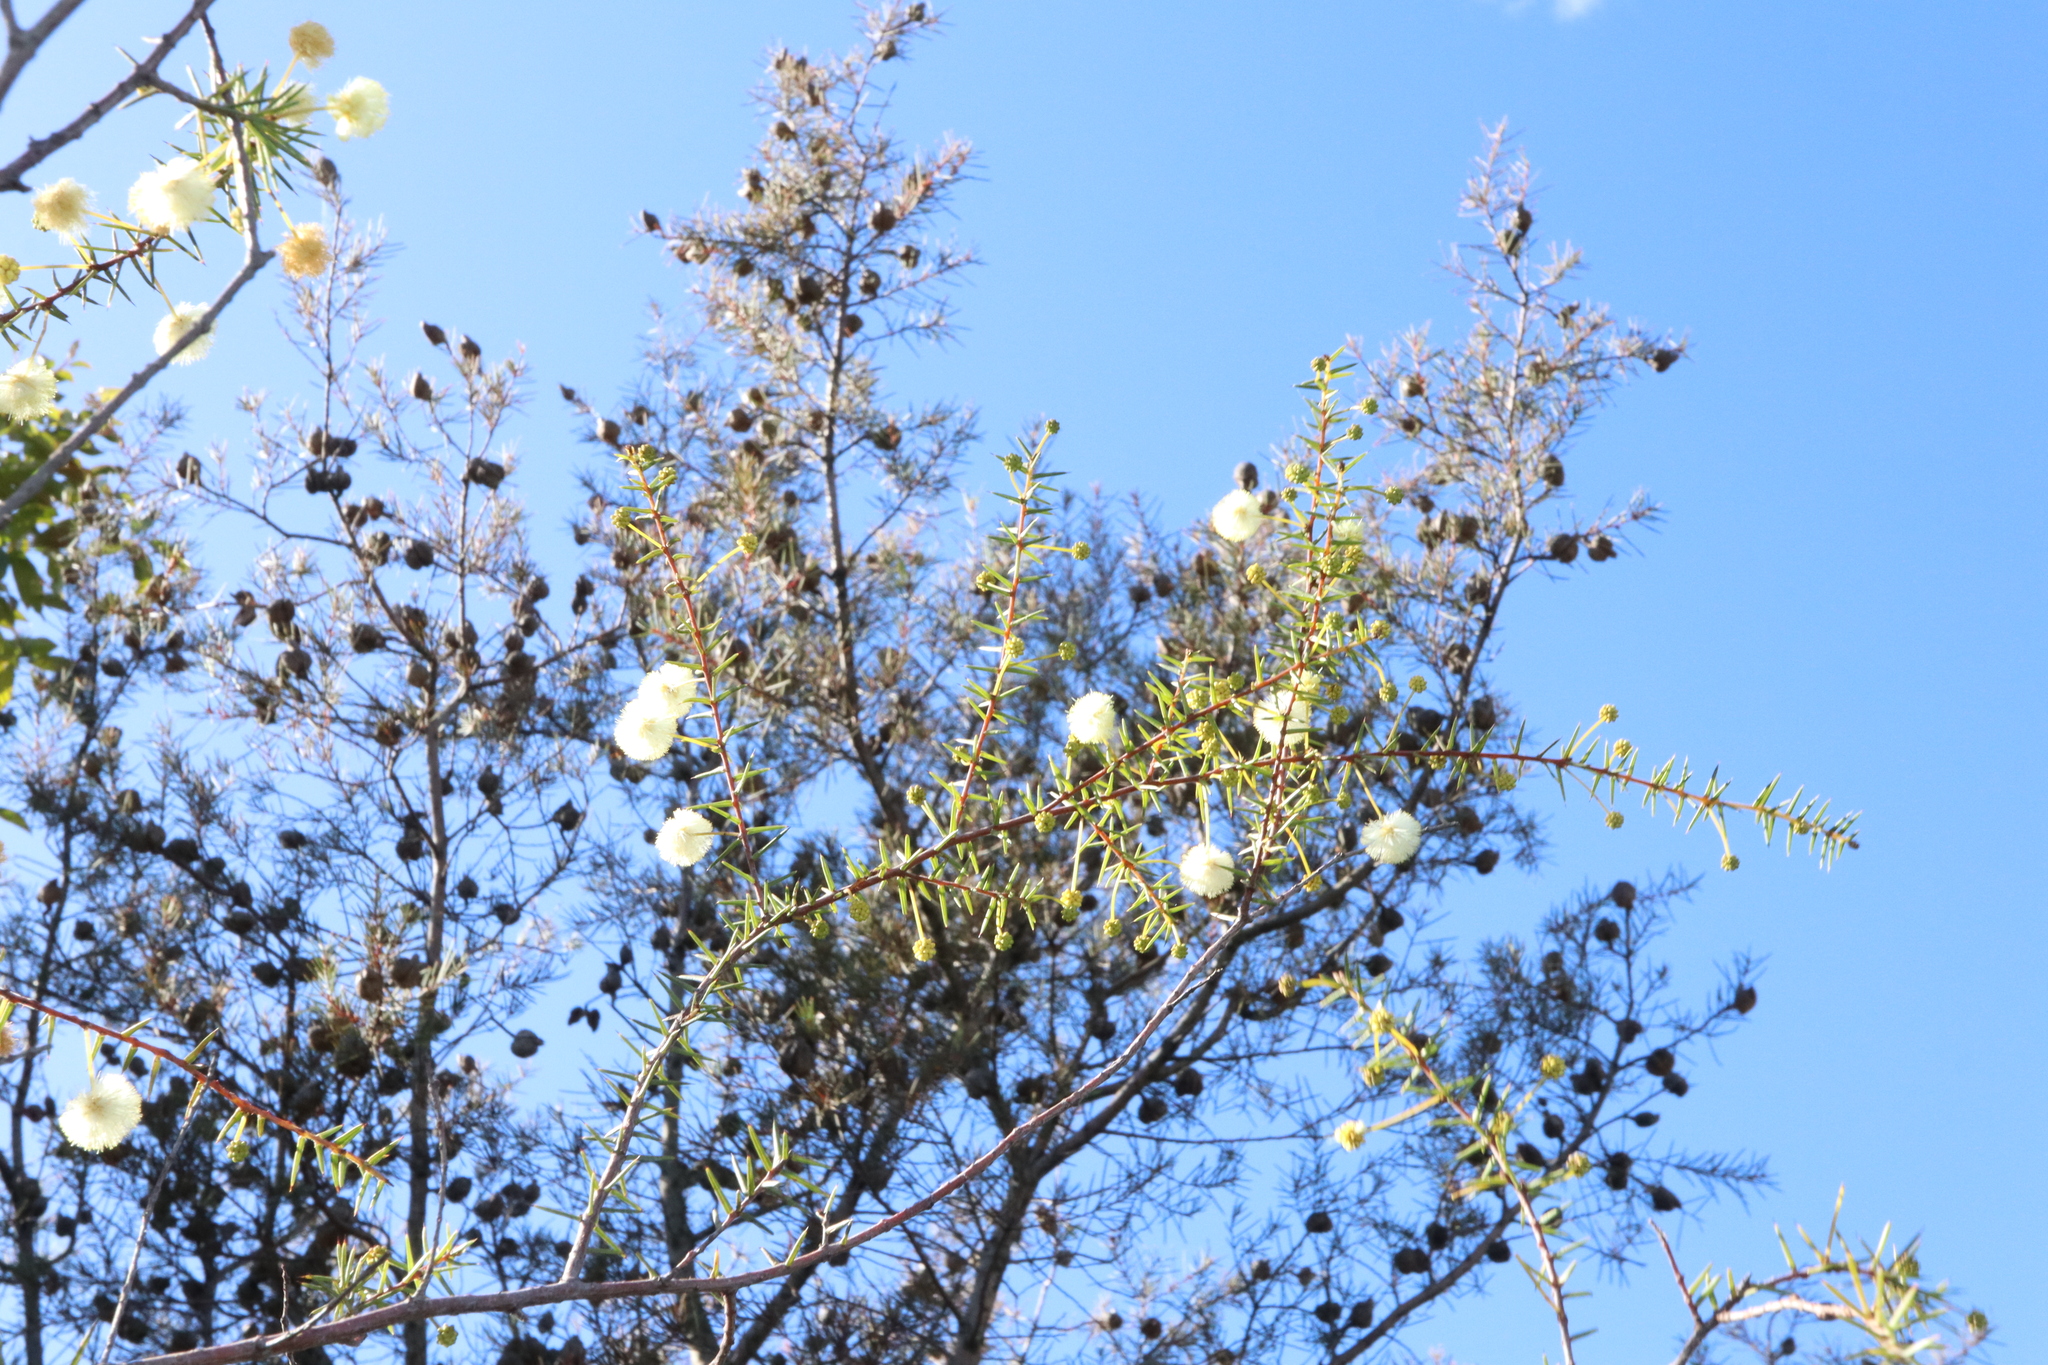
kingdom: Plantae
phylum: Tracheophyta
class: Magnoliopsida
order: Fabales
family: Fabaceae
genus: Acacia
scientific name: Acacia ulicifolia
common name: Juniper wattle
